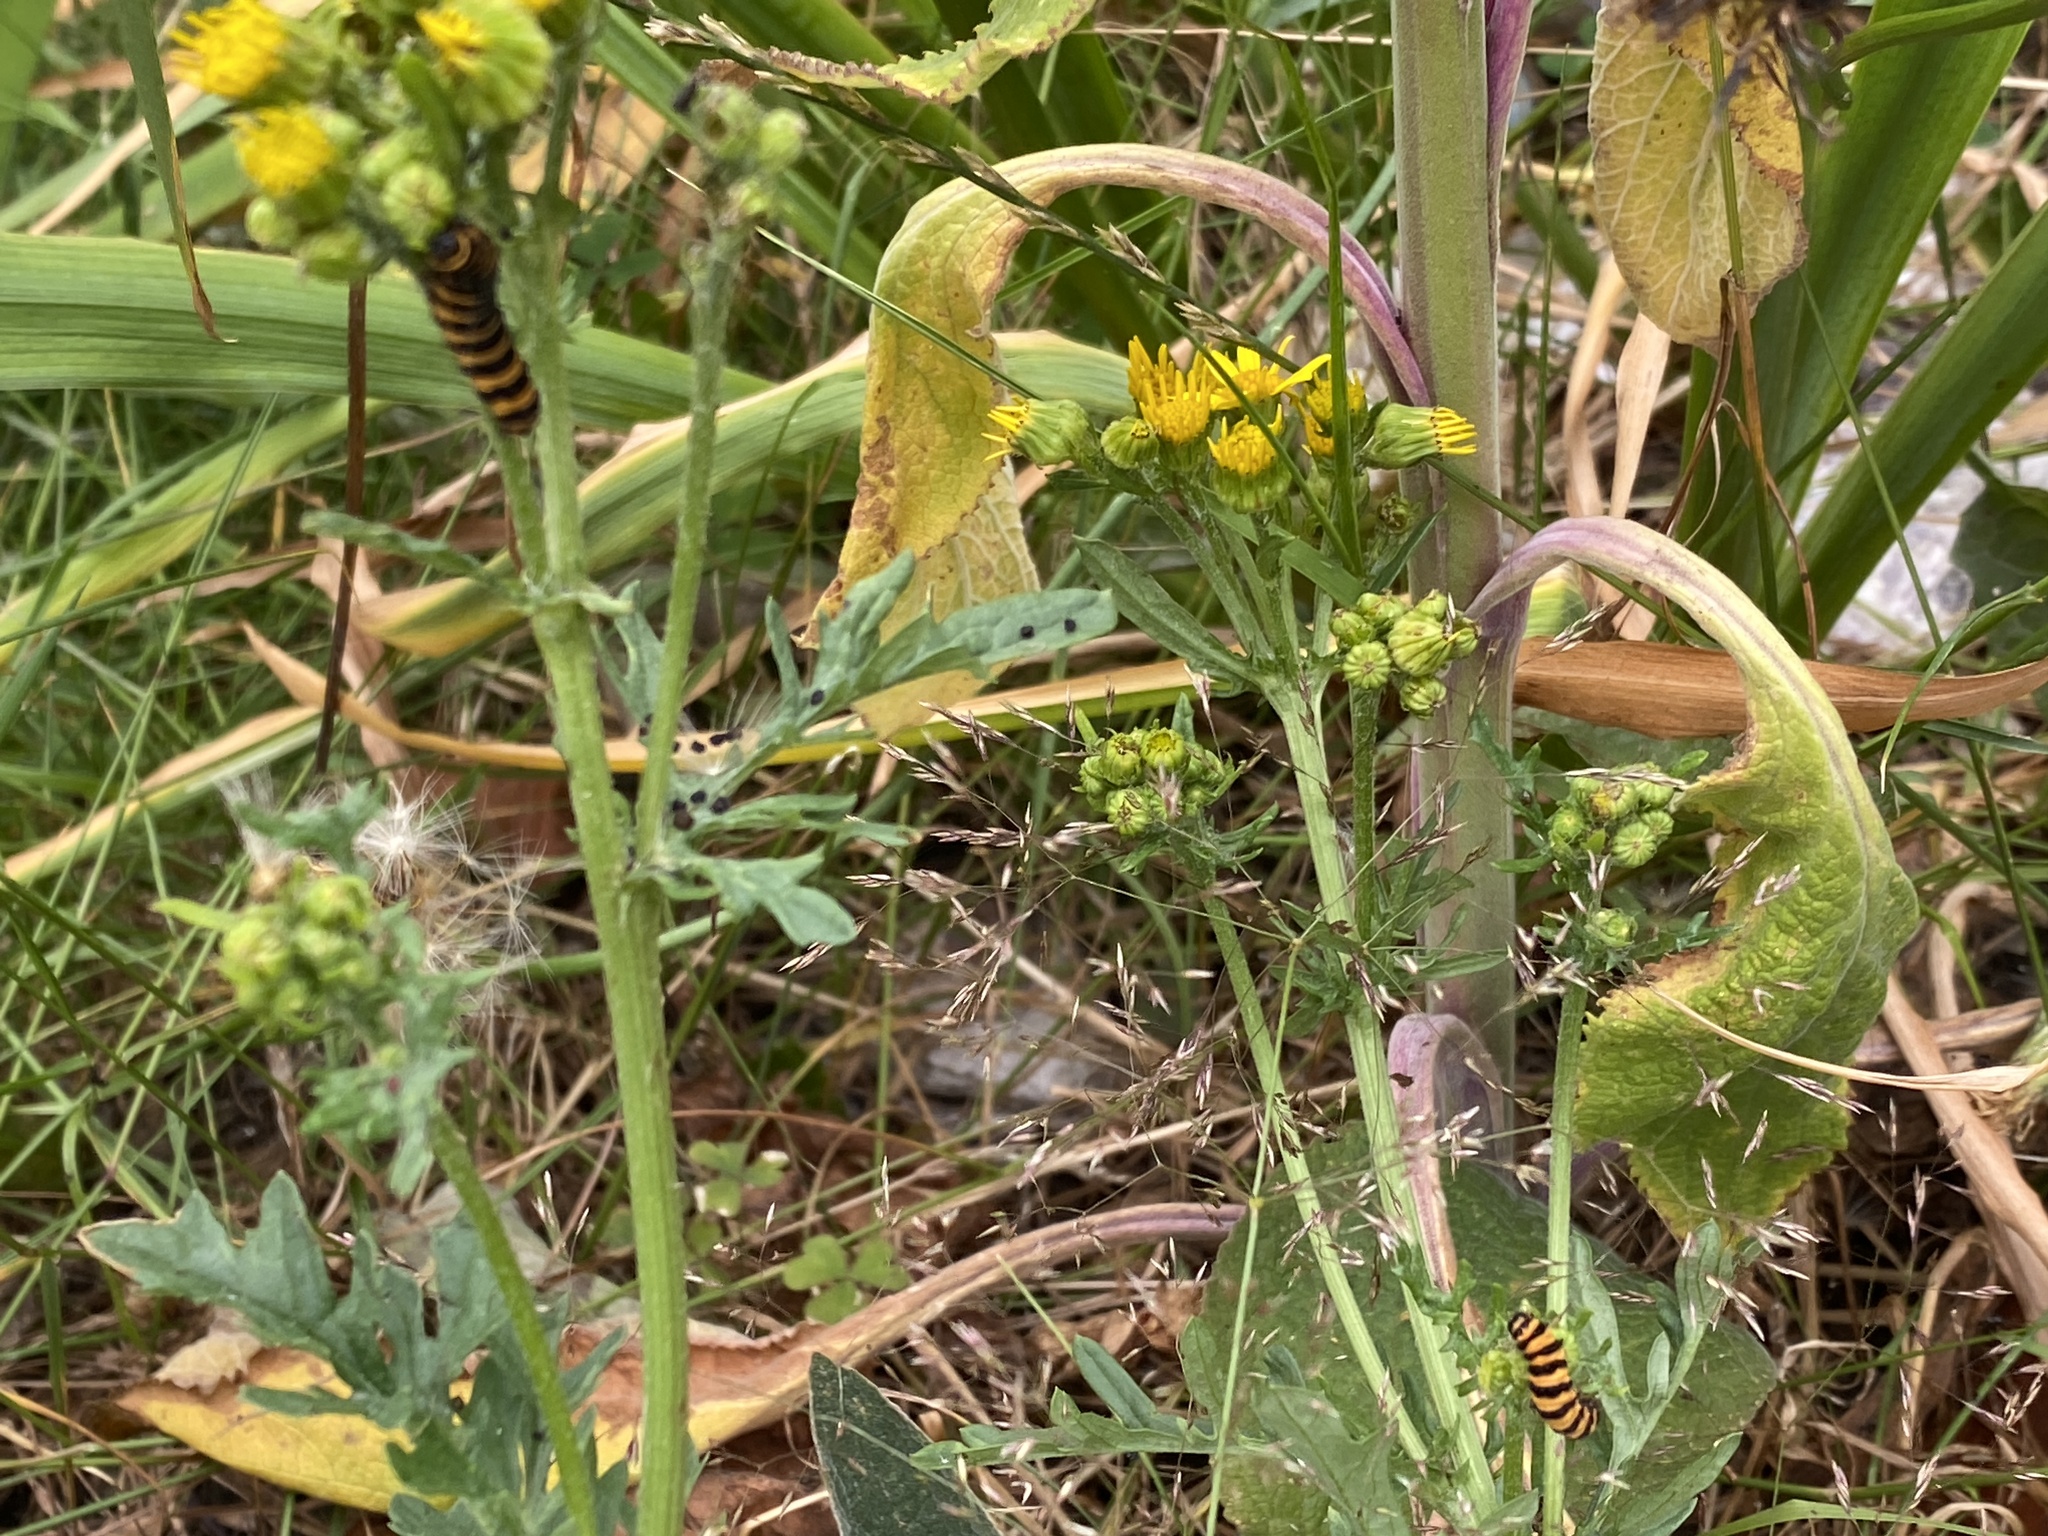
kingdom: Animalia
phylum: Arthropoda
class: Insecta
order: Lepidoptera
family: Erebidae
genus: Tyria
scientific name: Tyria jacobaeae
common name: Cinnabar
